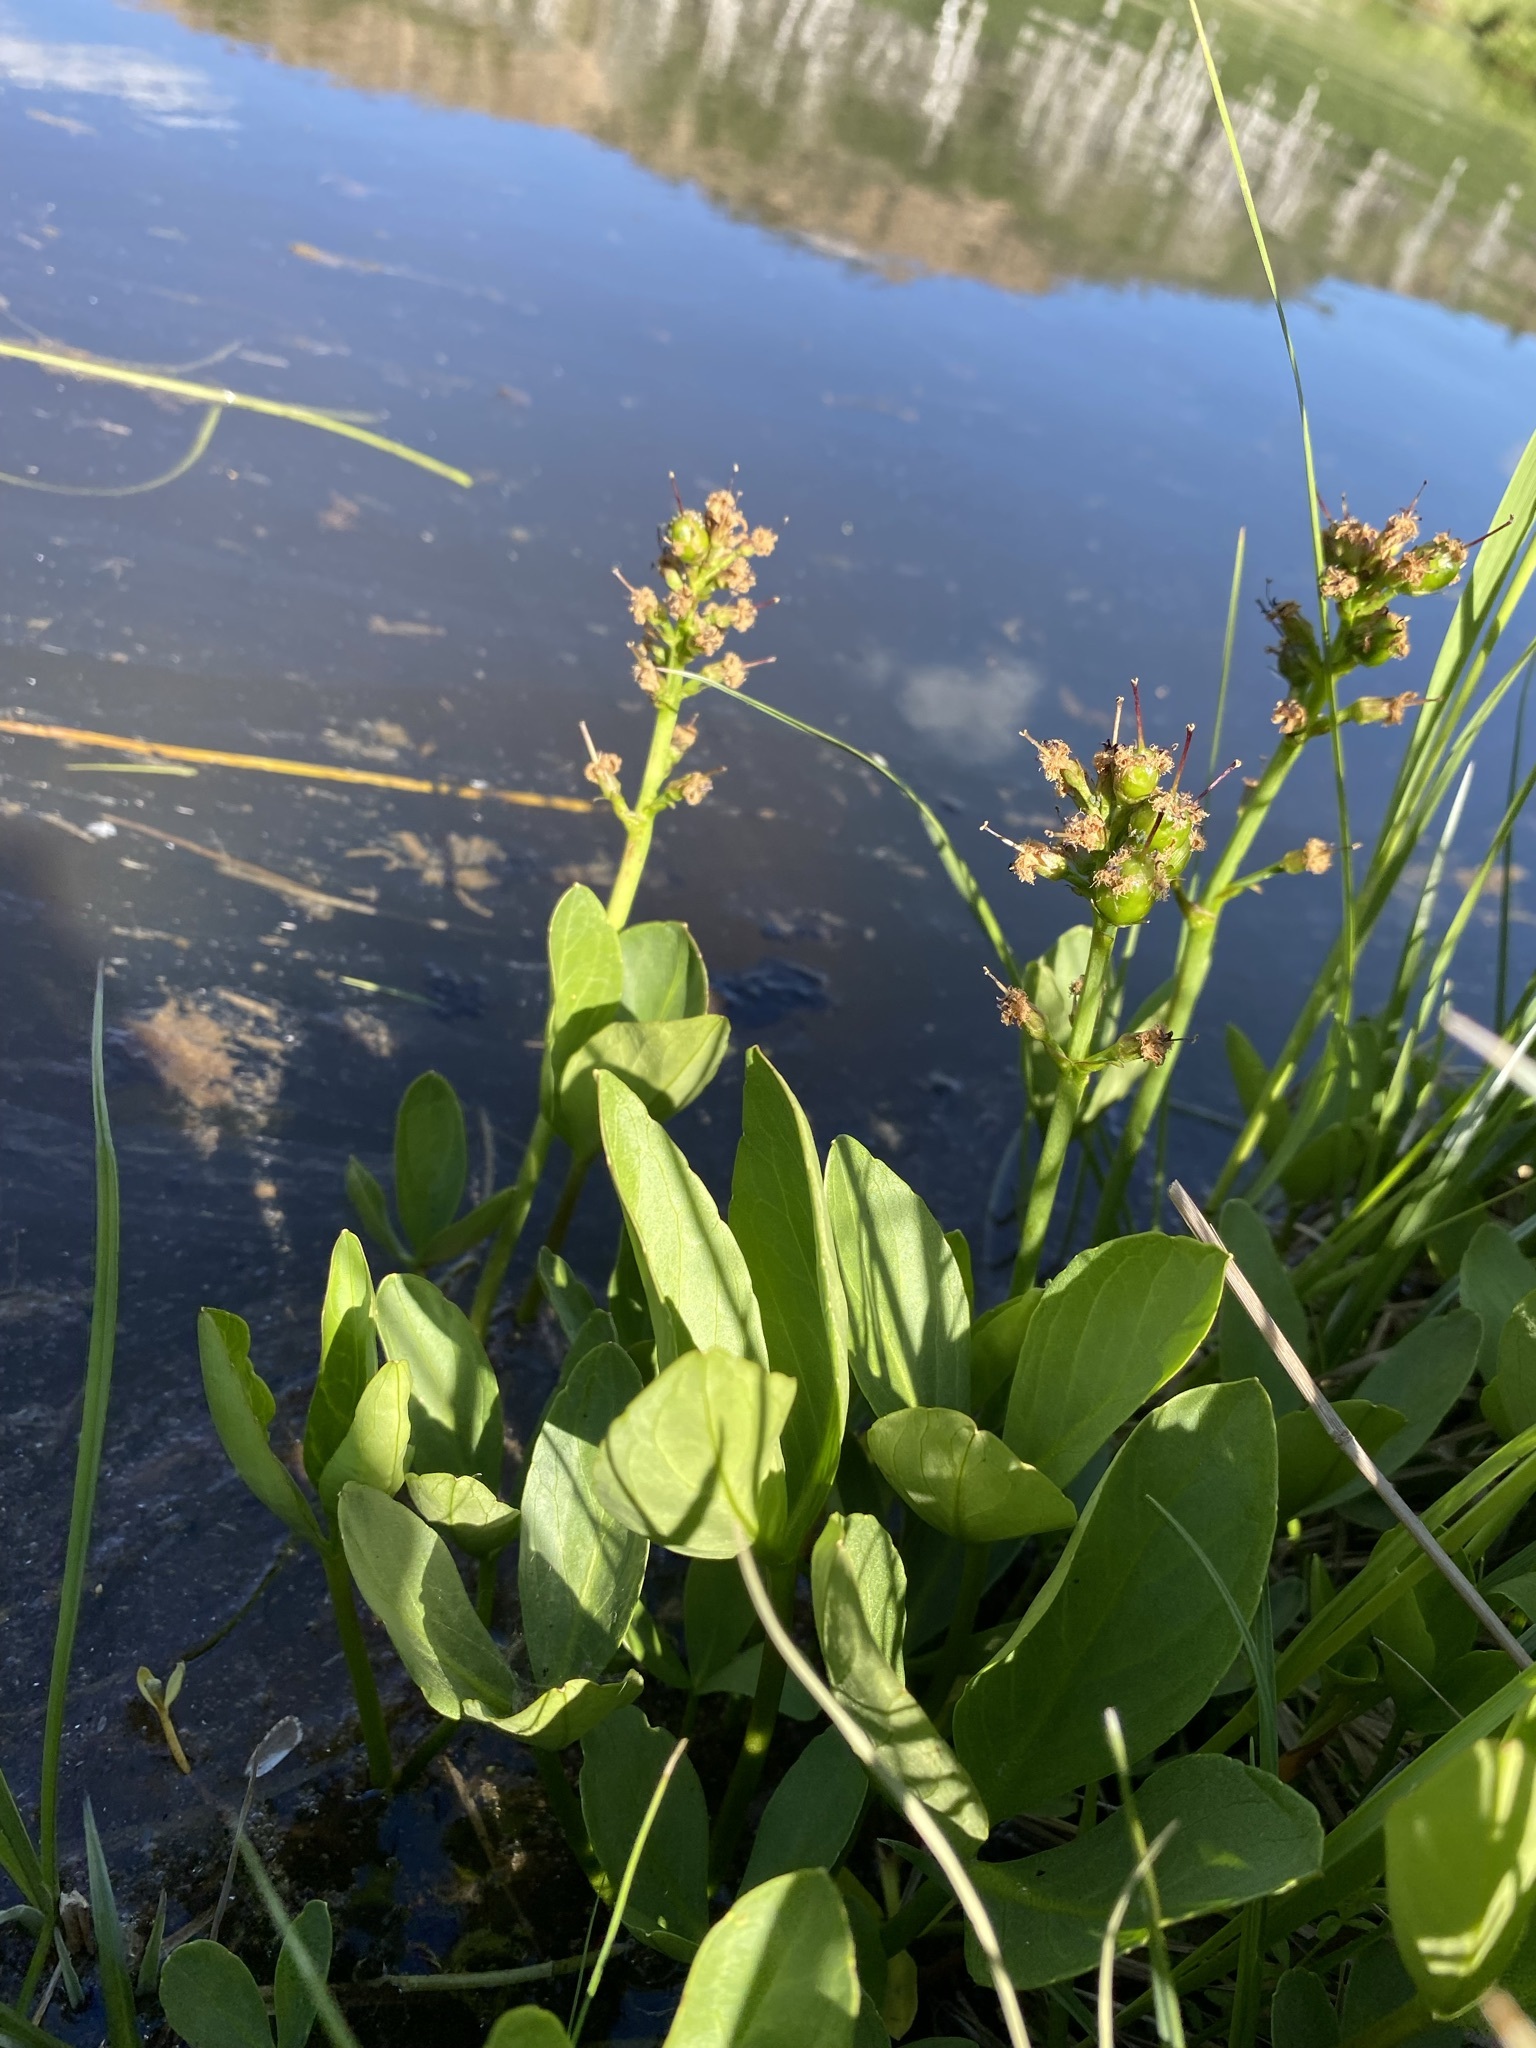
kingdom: Plantae
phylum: Tracheophyta
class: Magnoliopsida
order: Asterales
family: Menyanthaceae
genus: Menyanthes
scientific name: Menyanthes trifoliata
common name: Bogbean
